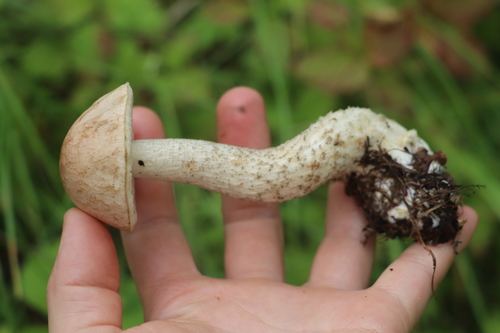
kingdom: Fungi
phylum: Basidiomycota
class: Agaricomycetes
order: Boletales
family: Boletaceae
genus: Leccinum
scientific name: Leccinum scabrum
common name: Blushing bolete
